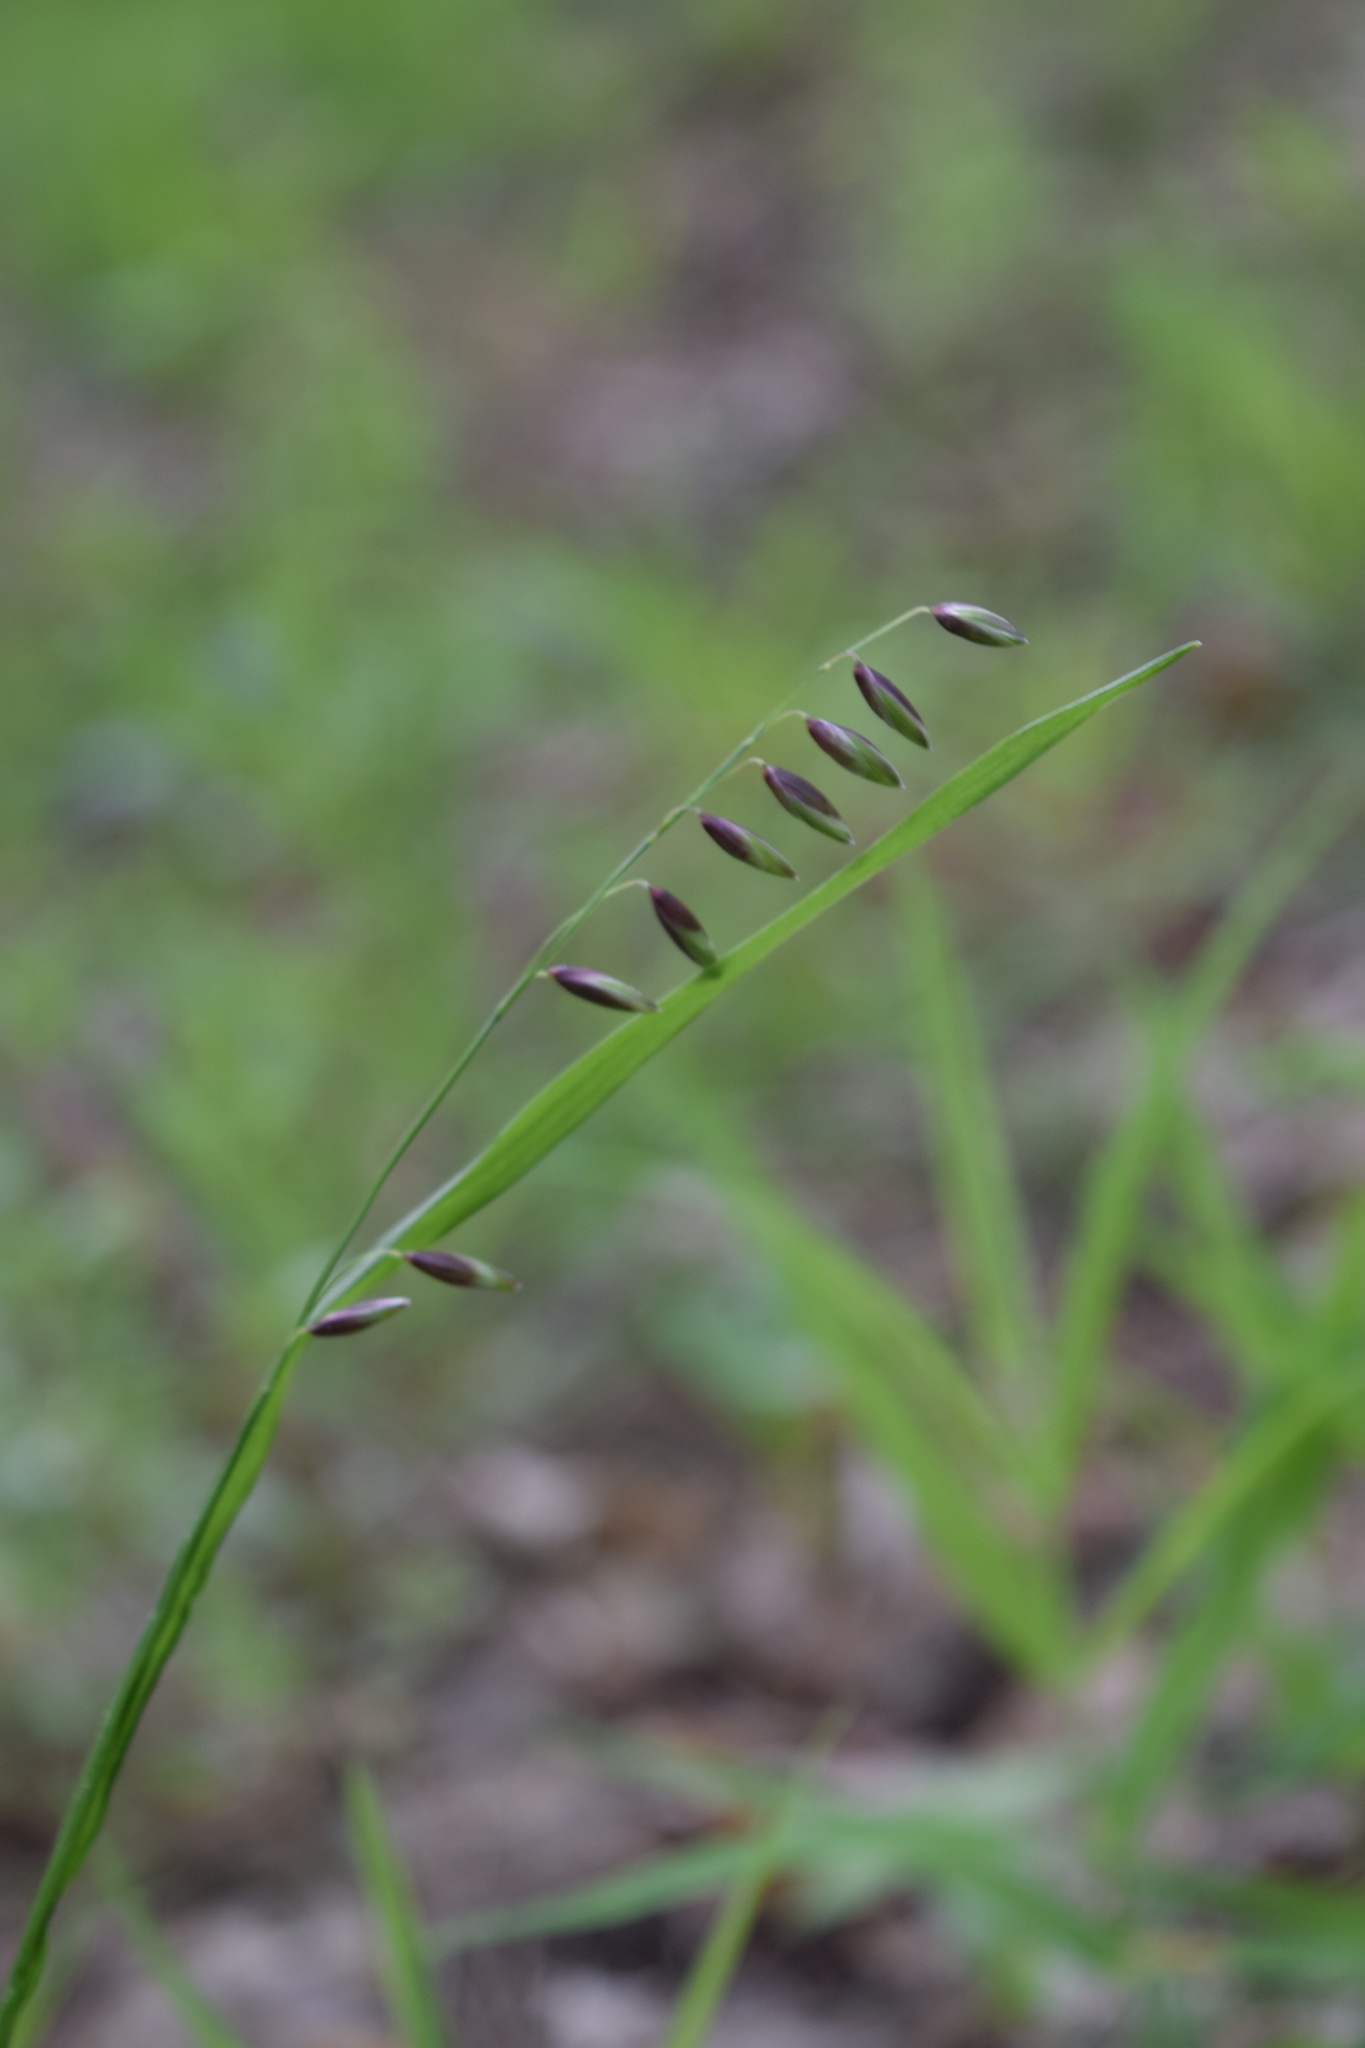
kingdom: Plantae
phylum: Tracheophyta
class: Liliopsida
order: Poales
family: Poaceae
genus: Melica
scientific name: Melica nutans
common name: Mountain melick
